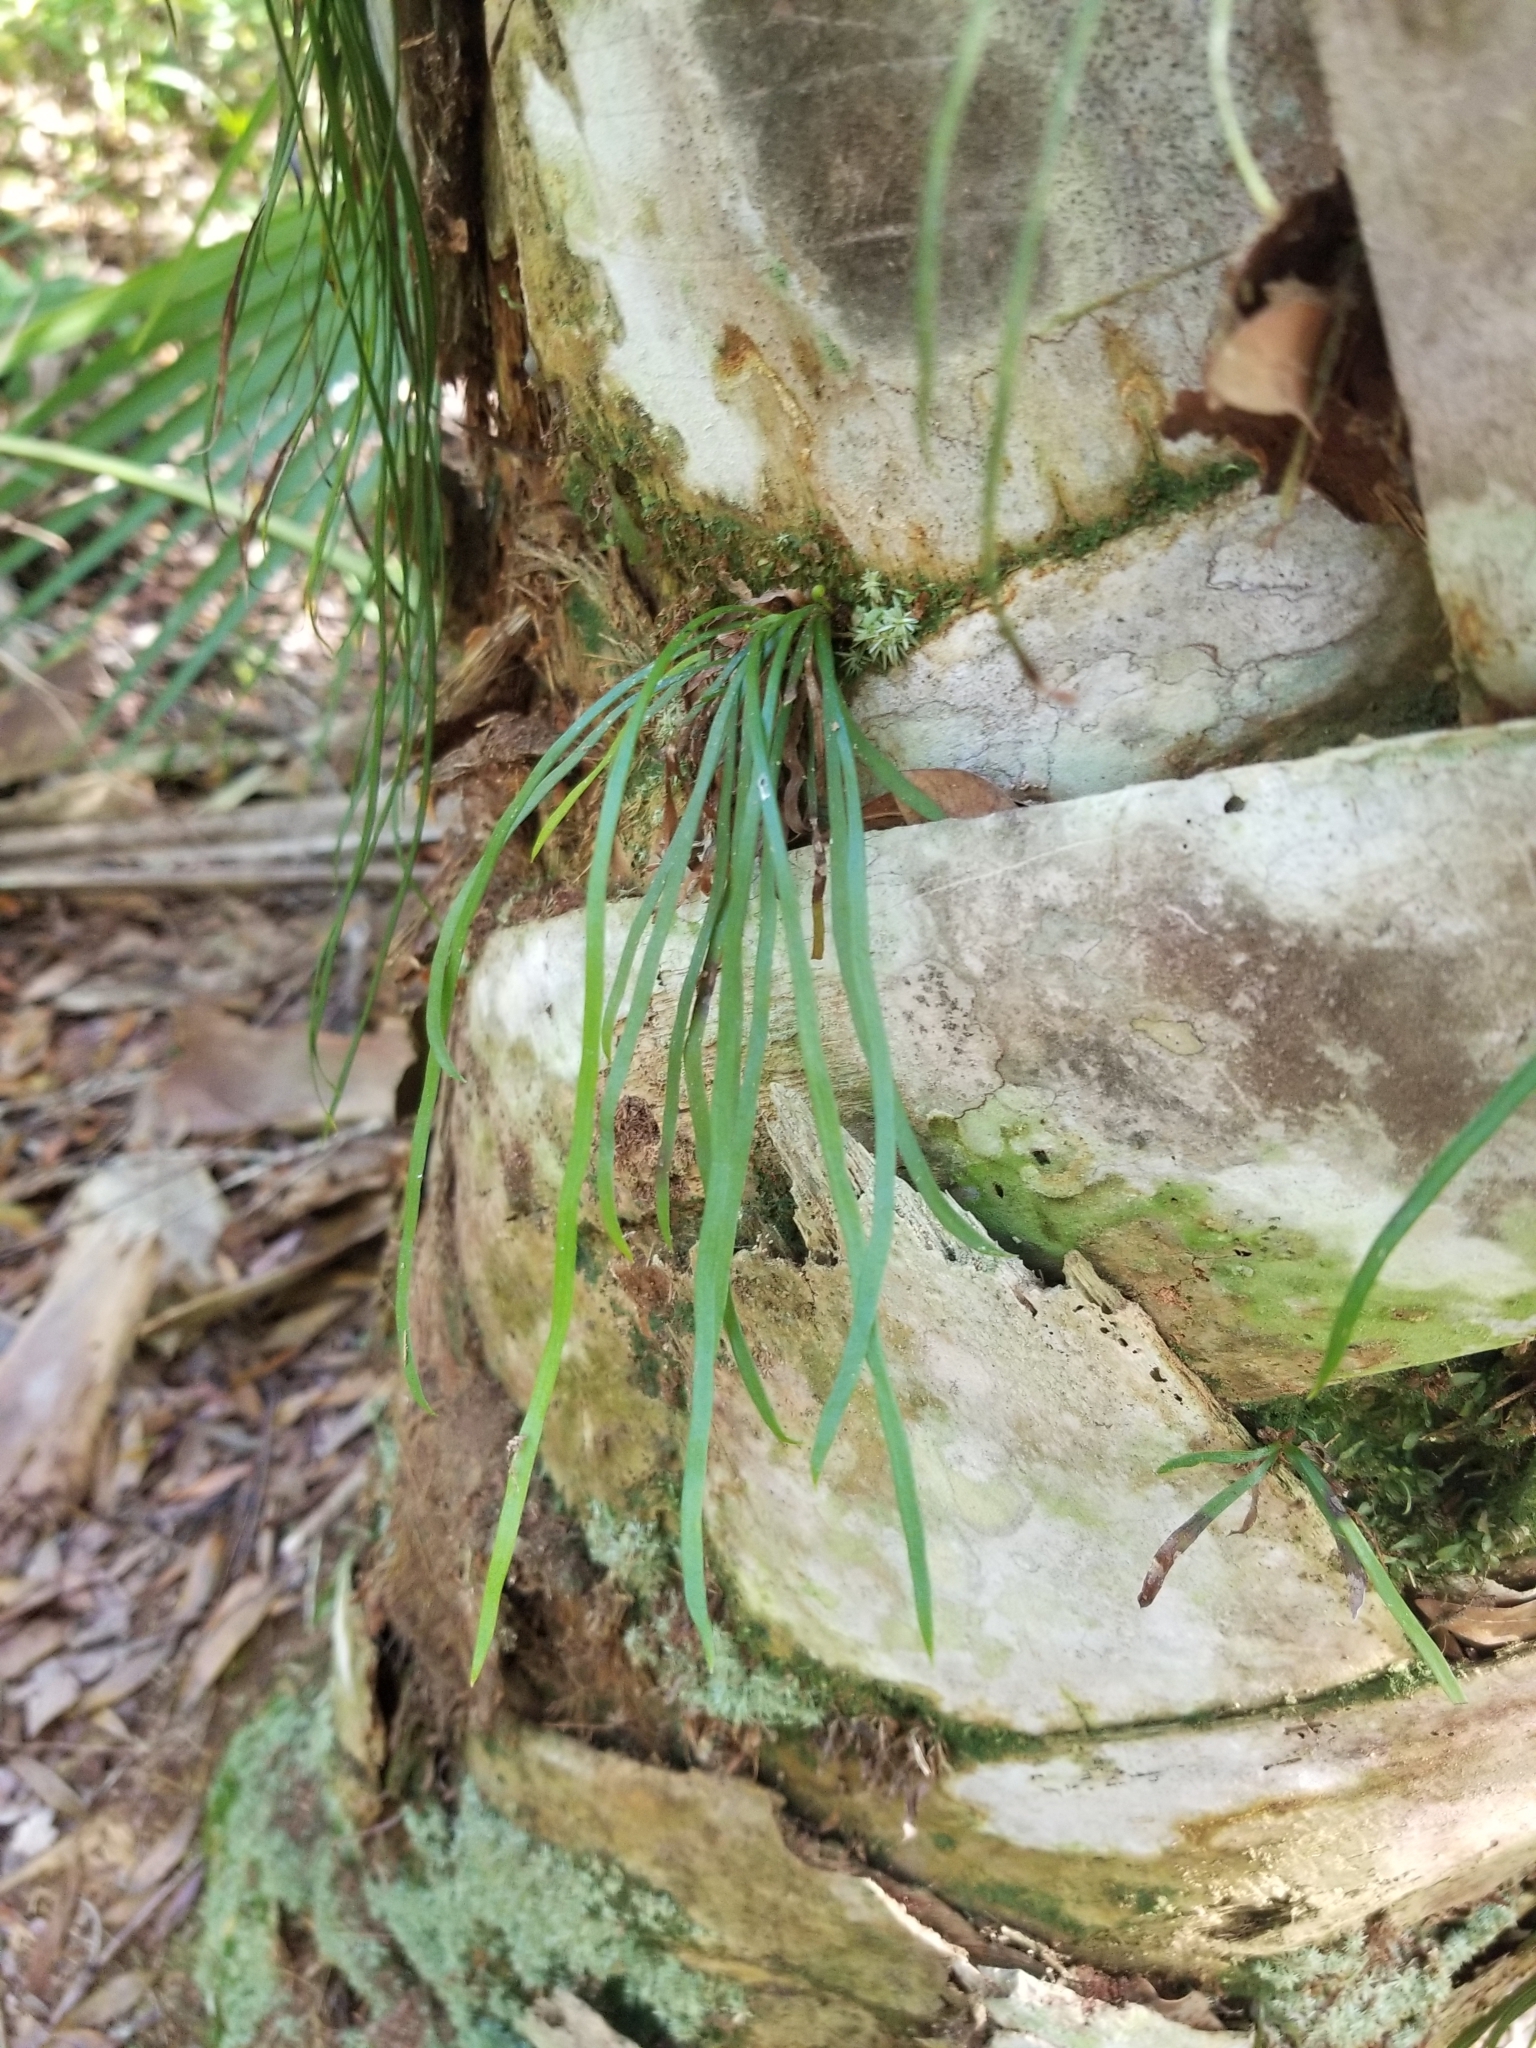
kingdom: Plantae
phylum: Tracheophyta
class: Polypodiopsida
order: Polypodiales
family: Pteridaceae
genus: Vittaria
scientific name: Vittaria lineata
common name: Shoestring fern
